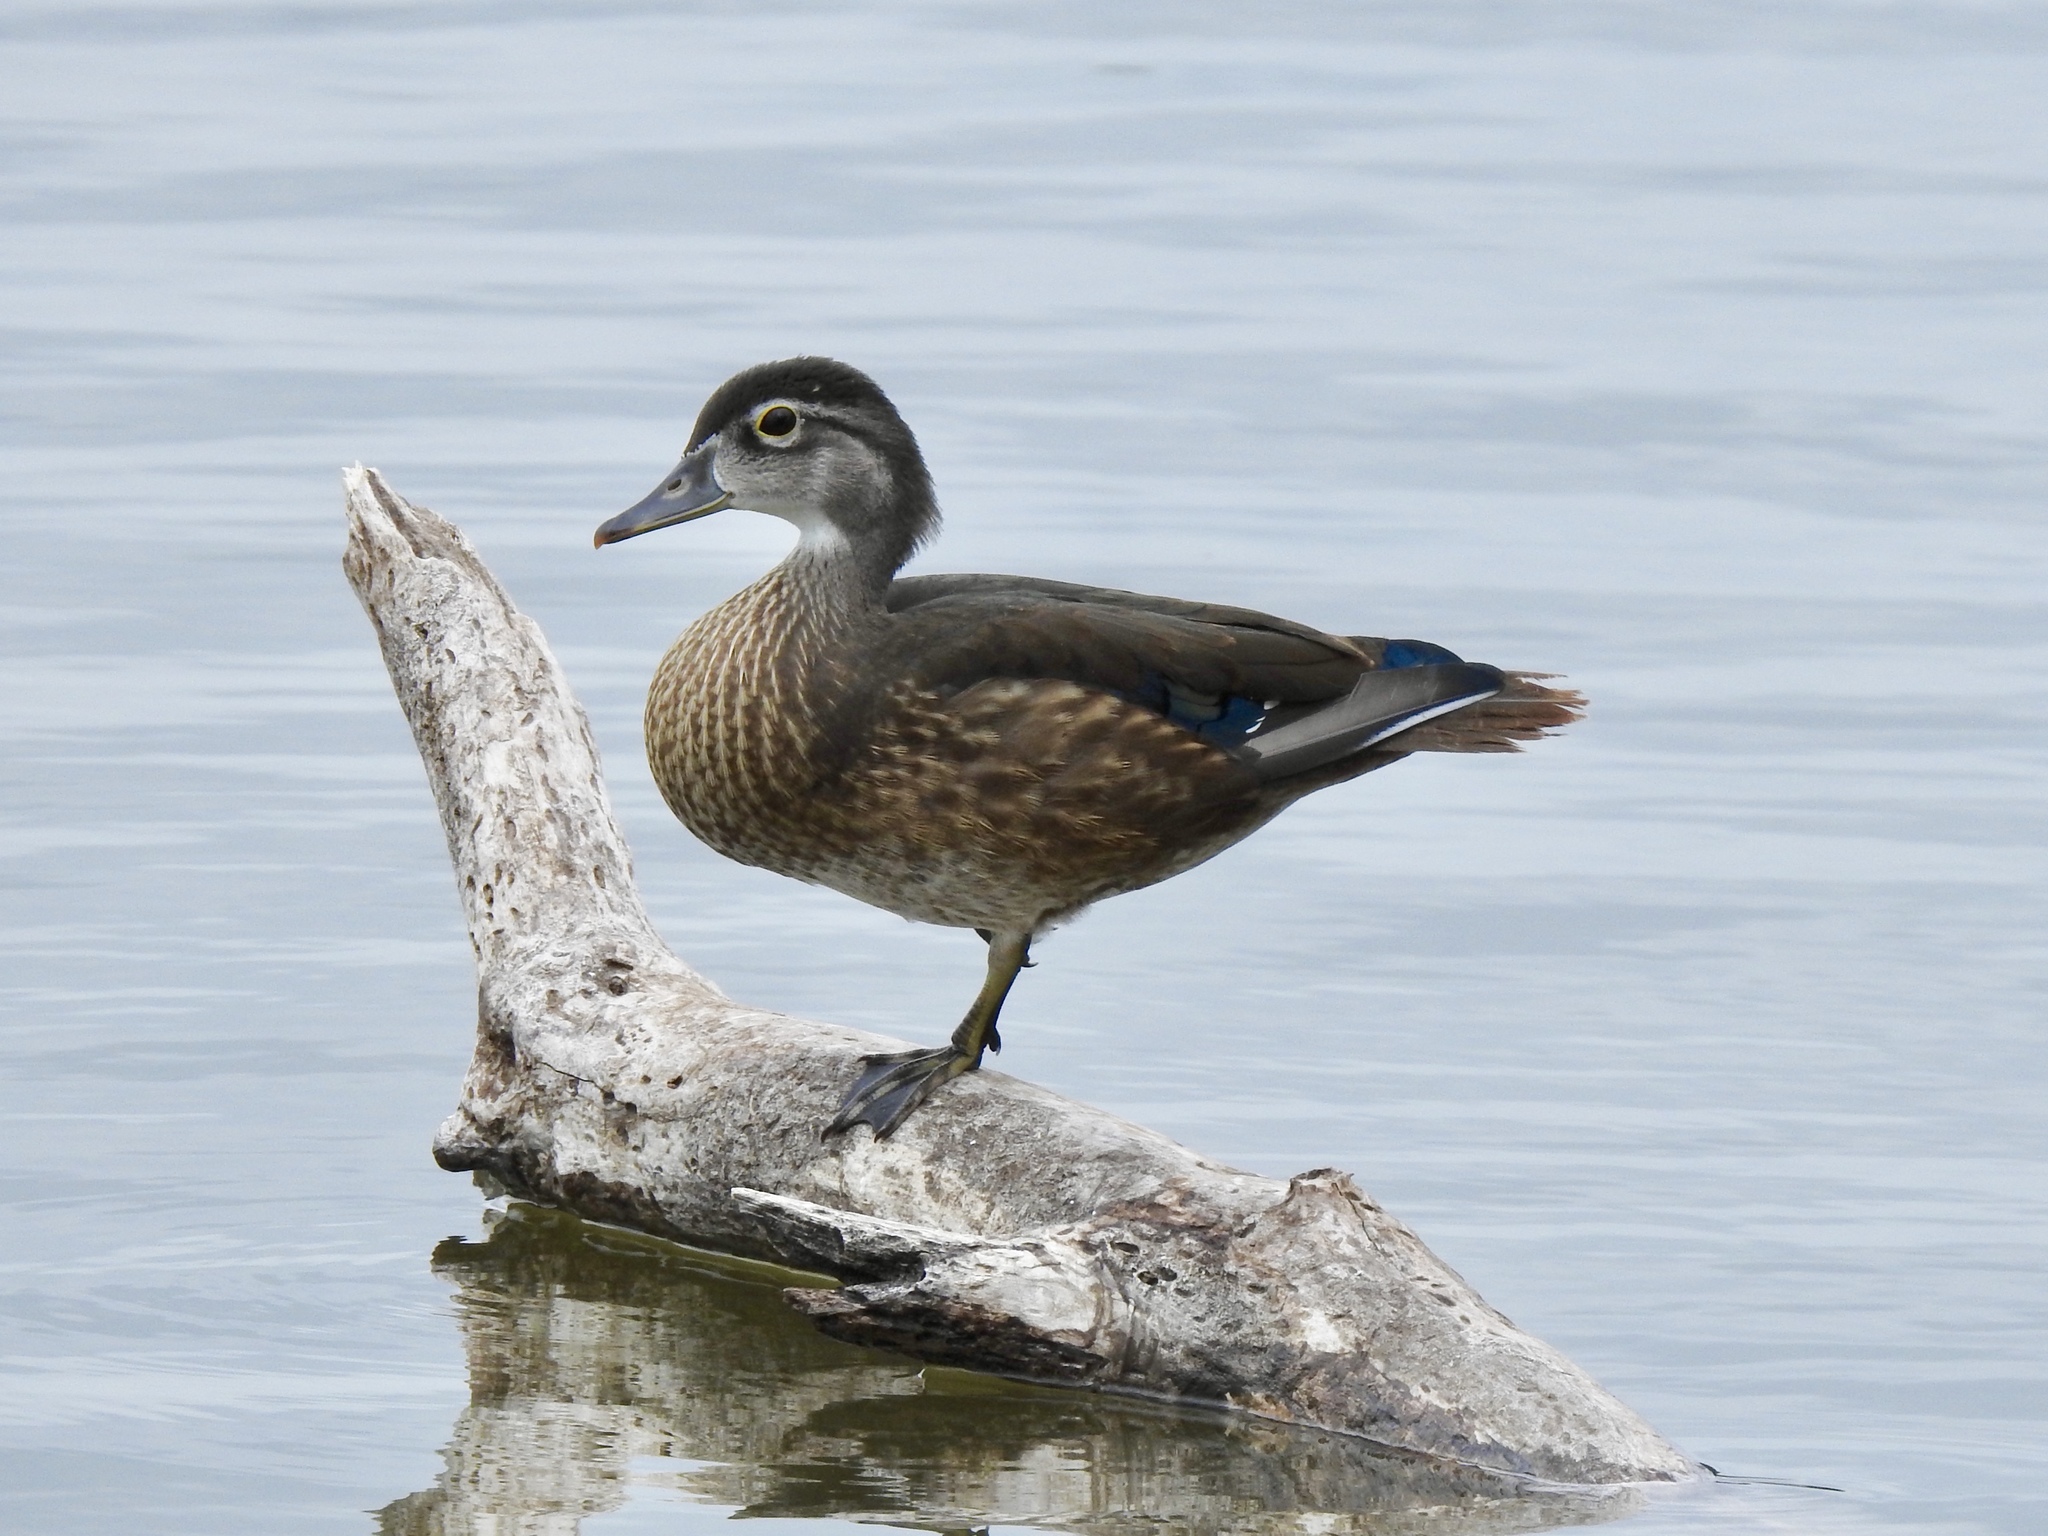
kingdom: Animalia
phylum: Chordata
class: Aves
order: Anseriformes
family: Anatidae
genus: Aix
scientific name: Aix sponsa
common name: Wood duck
